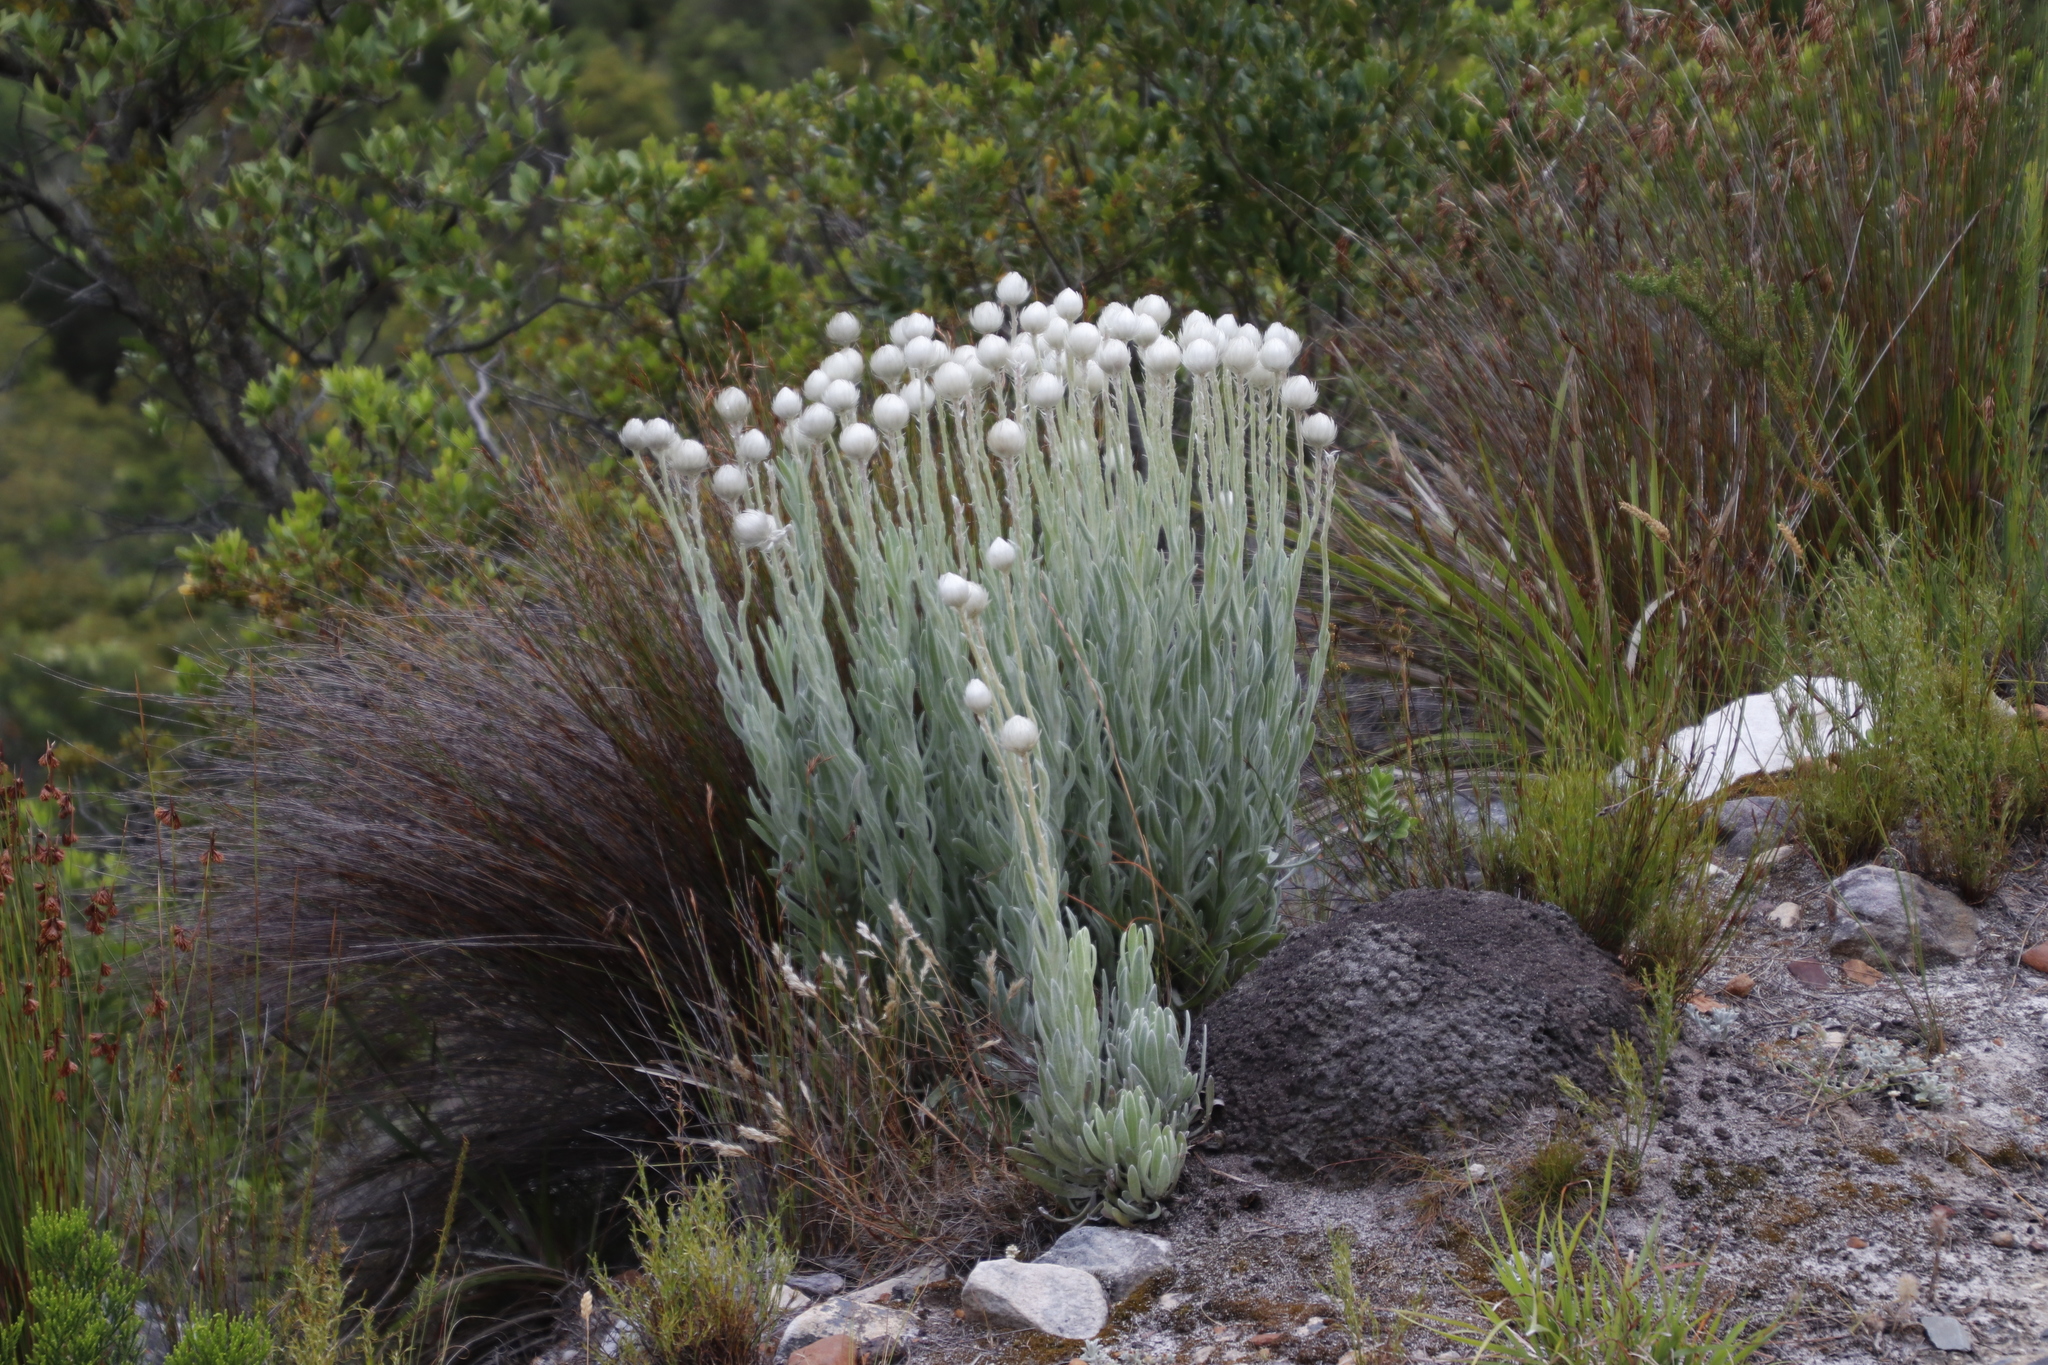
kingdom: Plantae
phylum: Tracheophyta
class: Magnoliopsida
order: Asterales
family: Asteraceae
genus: Syncarpha
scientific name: Syncarpha vestita
